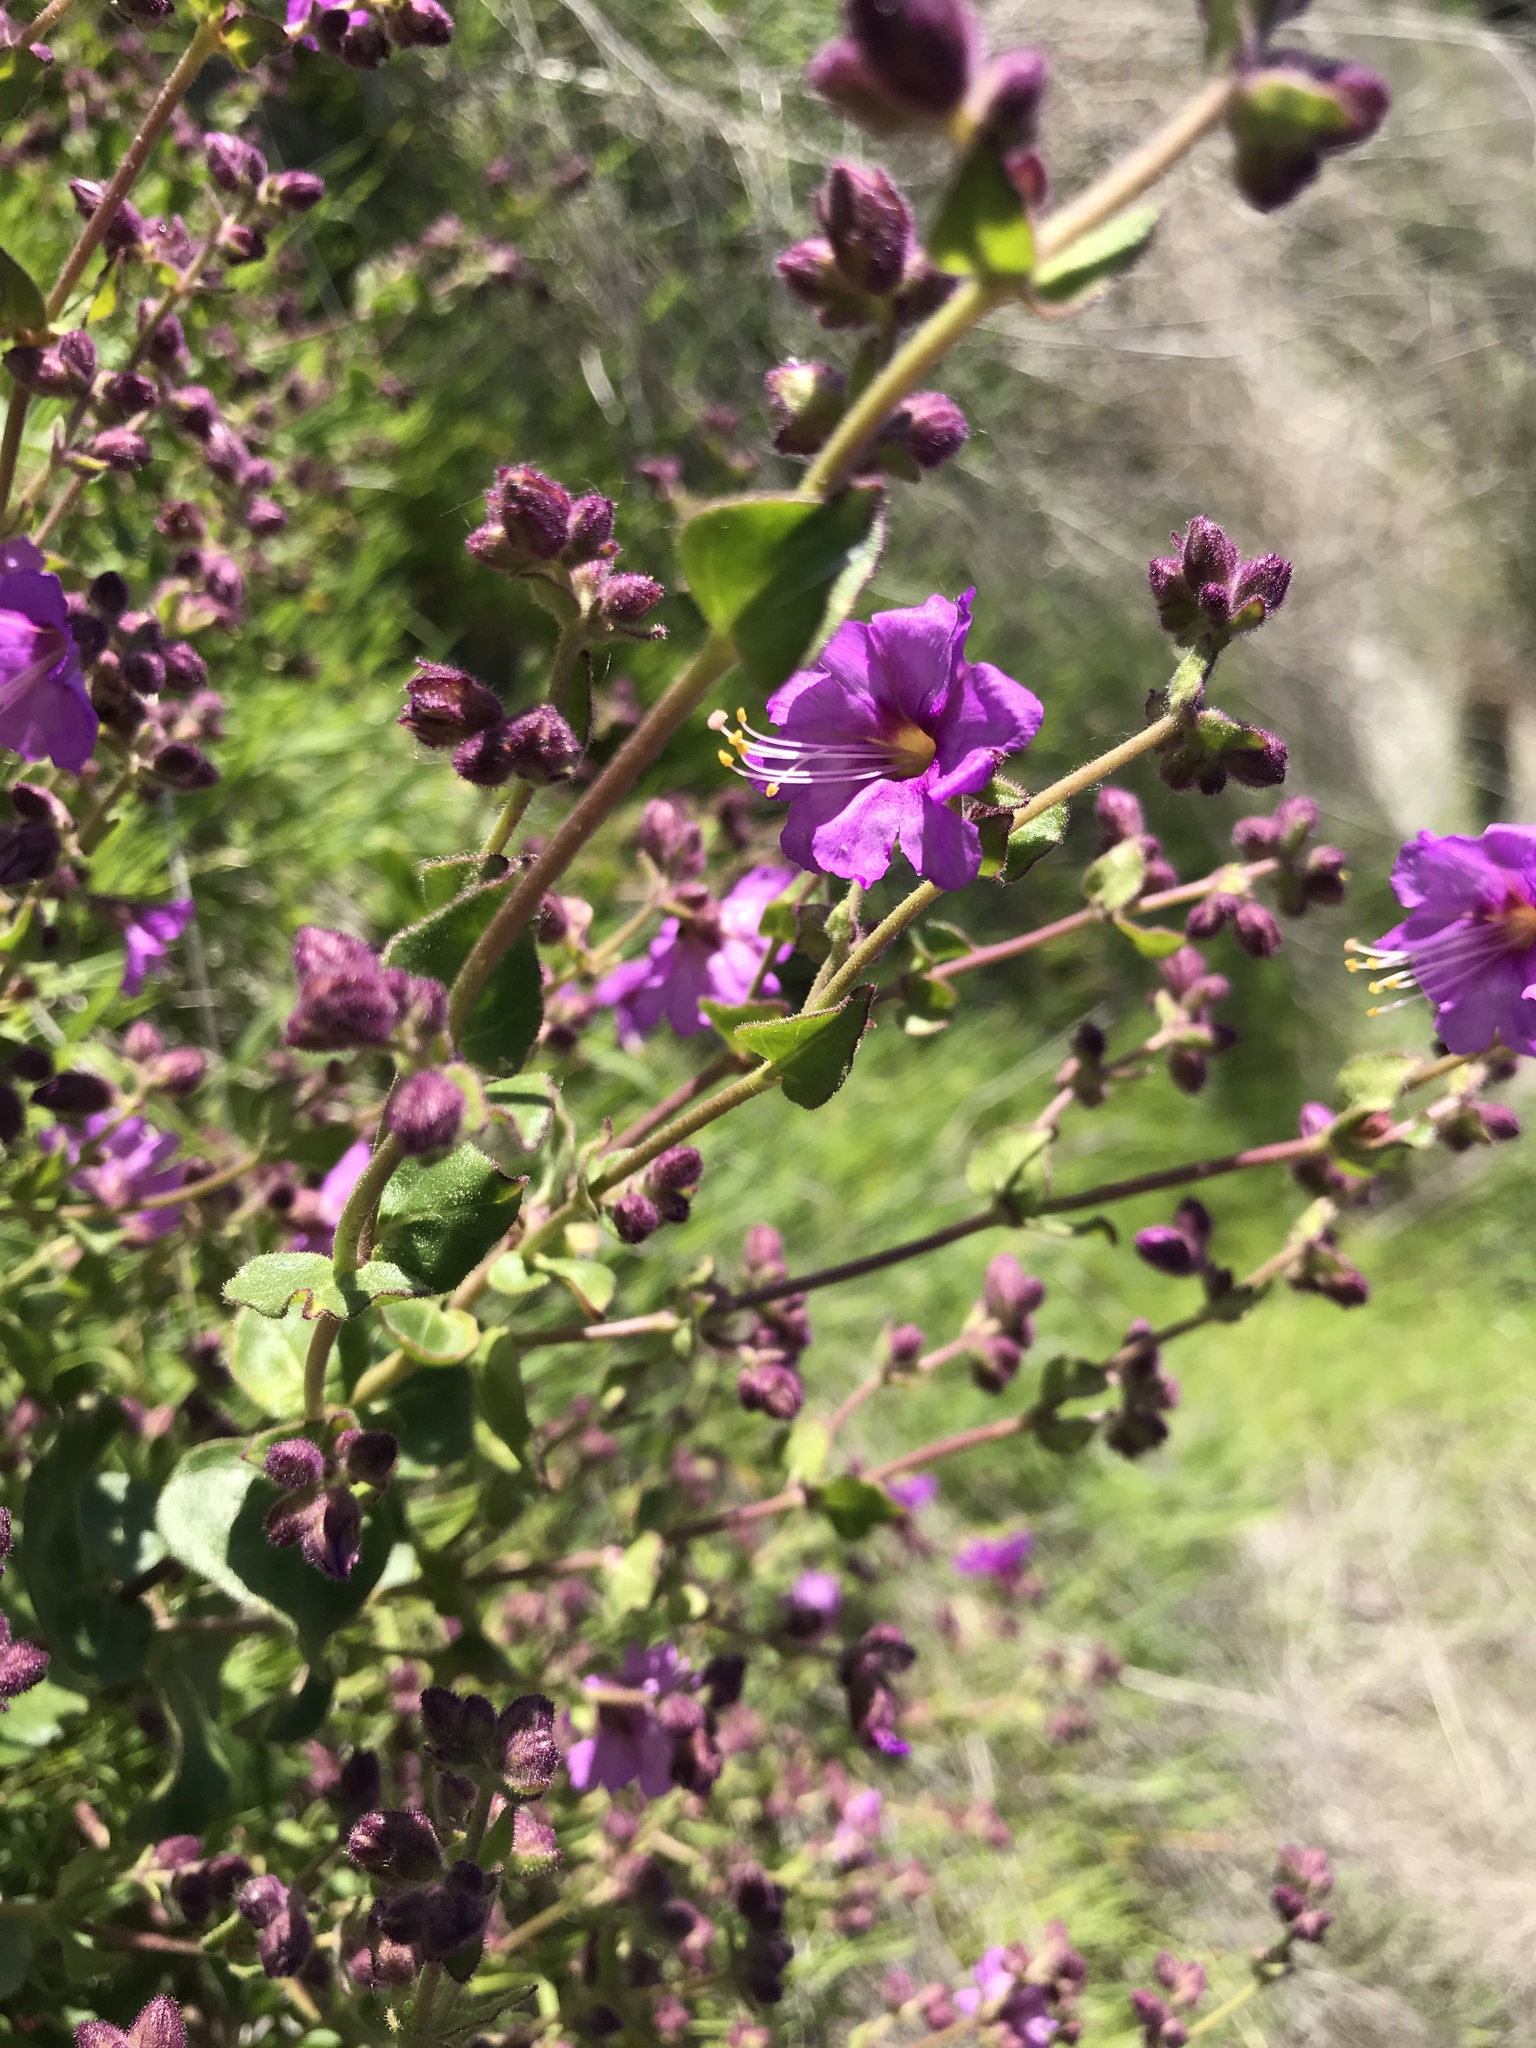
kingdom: Plantae
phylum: Tracheophyta
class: Magnoliopsida
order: Caryophyllales
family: Nyctaginaceae
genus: Mirabilis
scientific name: Mirabilis laevis
